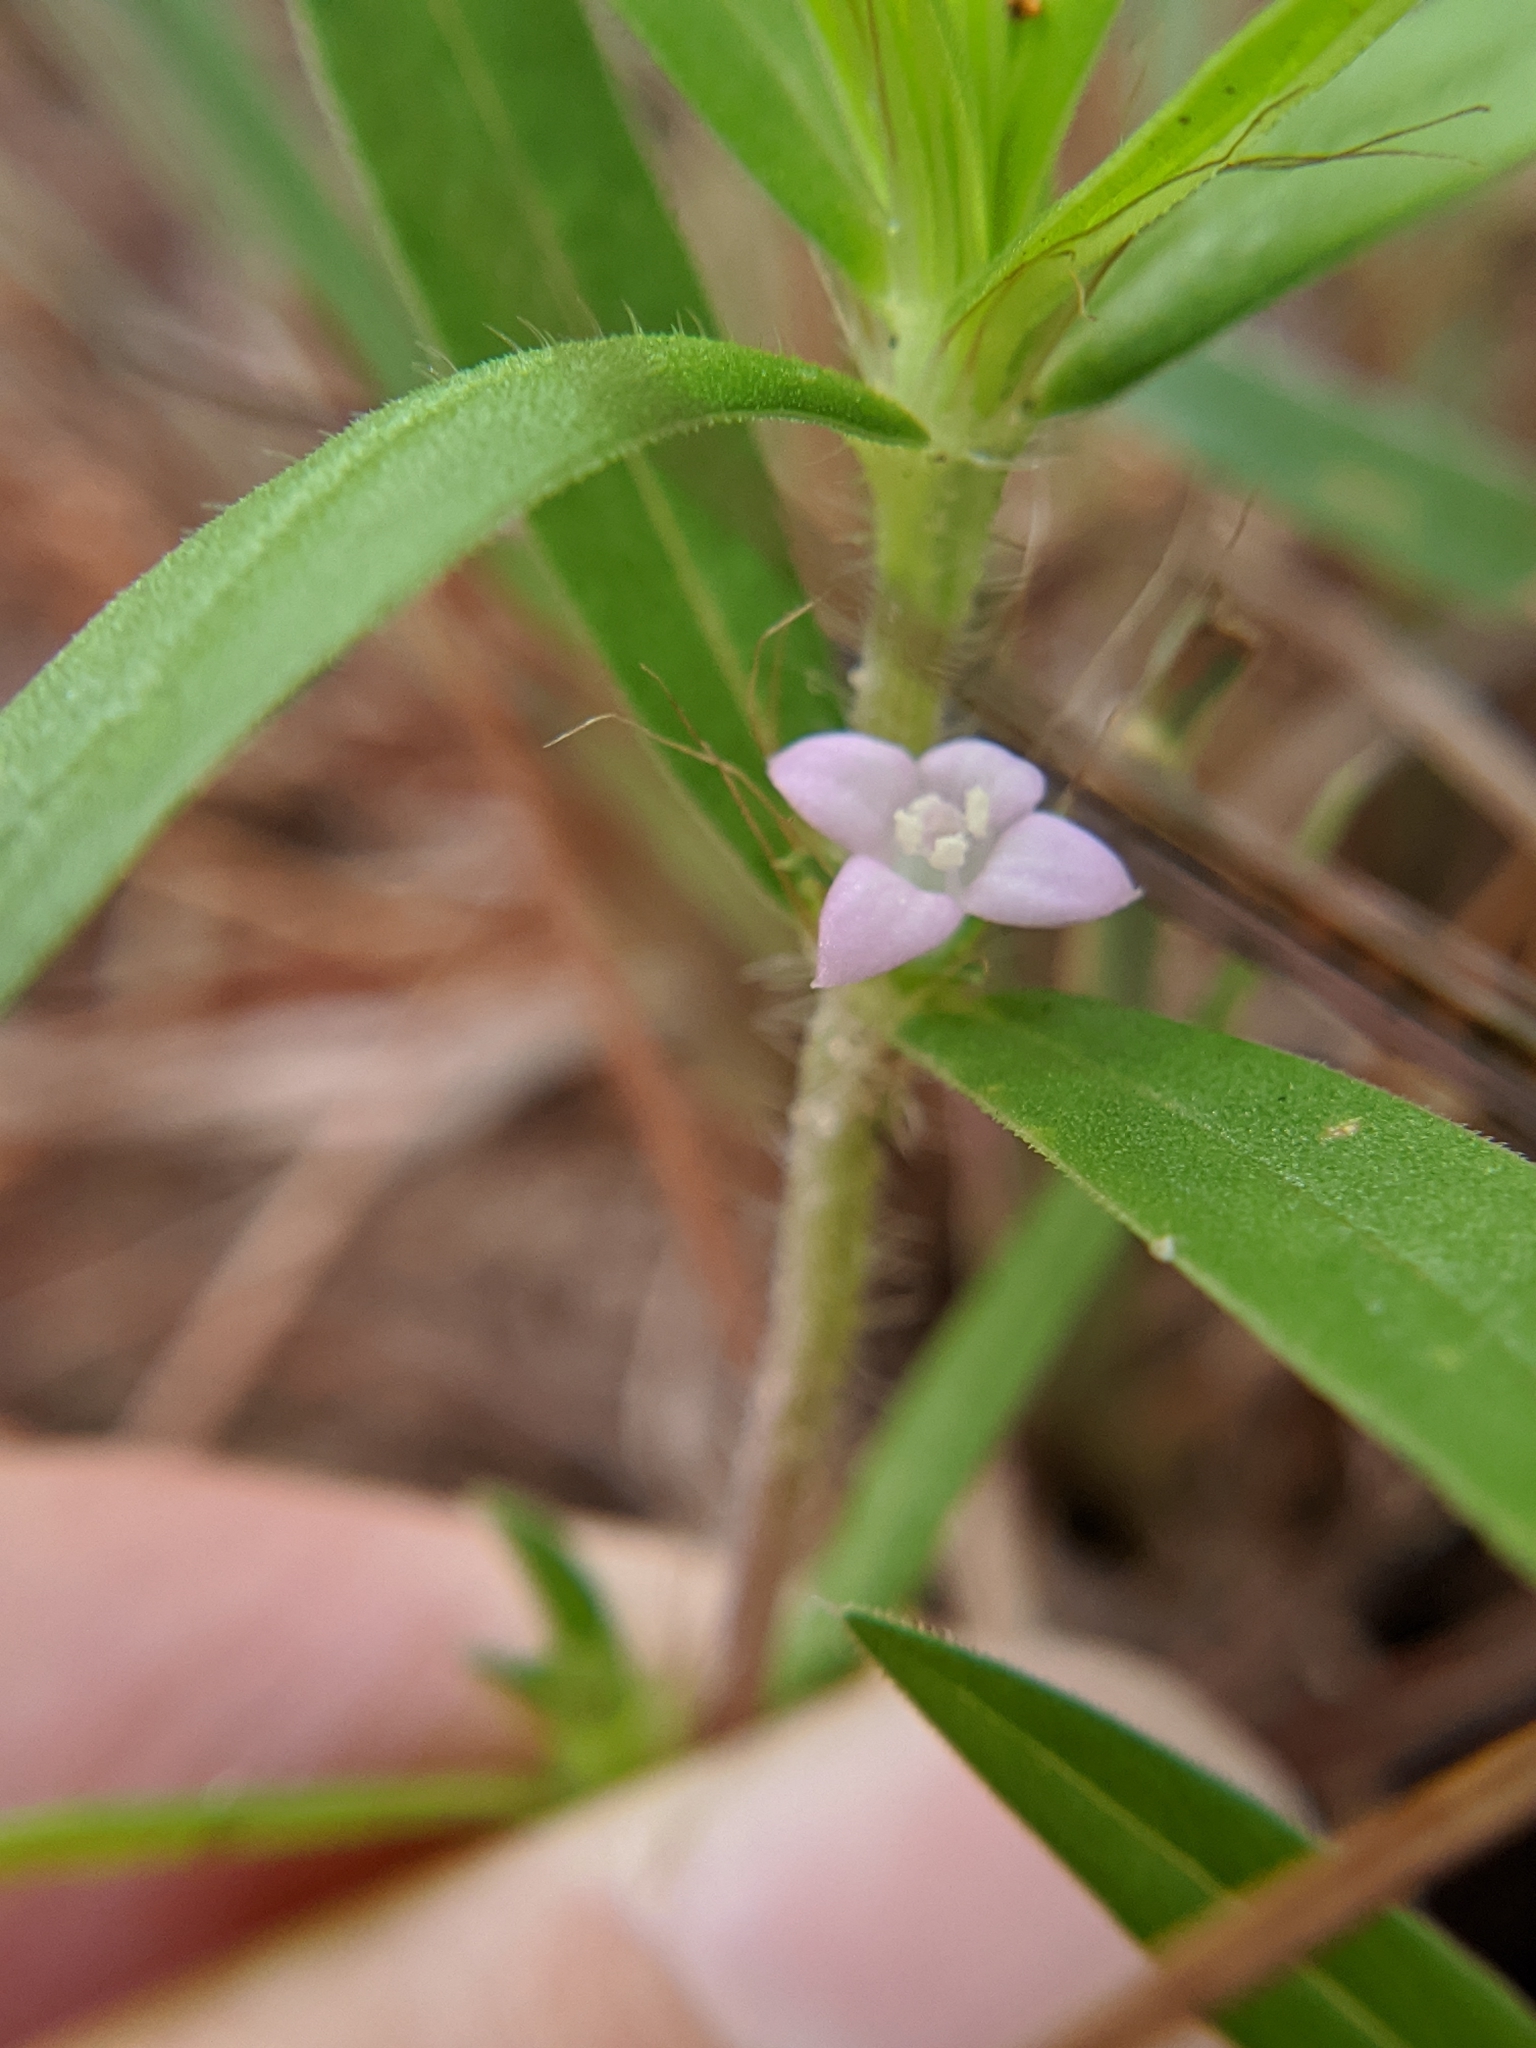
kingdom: Plantae
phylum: Tracheophyta
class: Magnoliopsida
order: Gentianales
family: Rubiaceae
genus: Hexasepalum
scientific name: Hexasepalum teres
